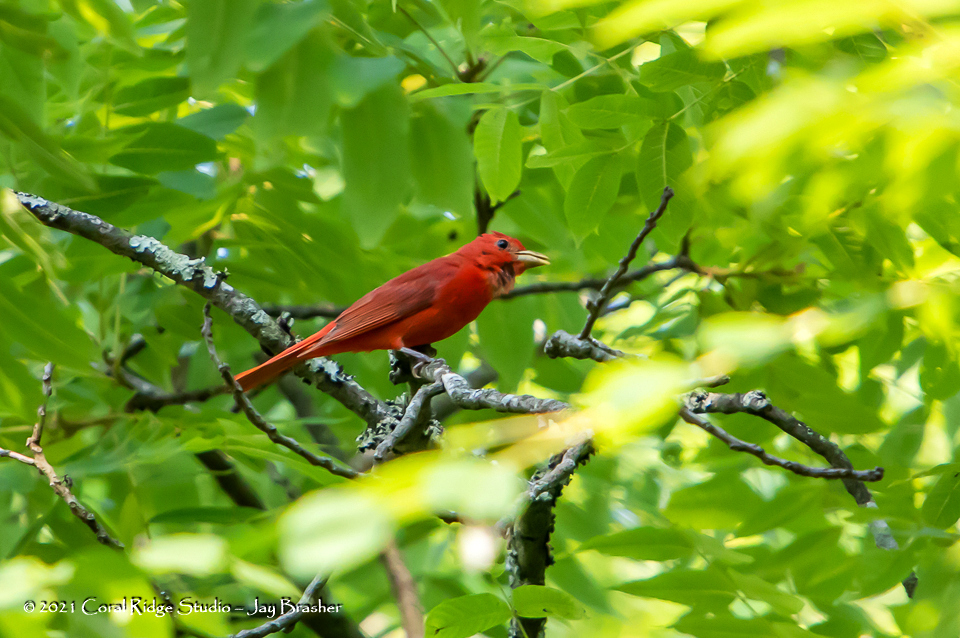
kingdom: Animalia
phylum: Chordata
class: Aves
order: Passeriformes
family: Cardinalidae
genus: Piranga
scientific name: Piranga rubra
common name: Summer tanager
